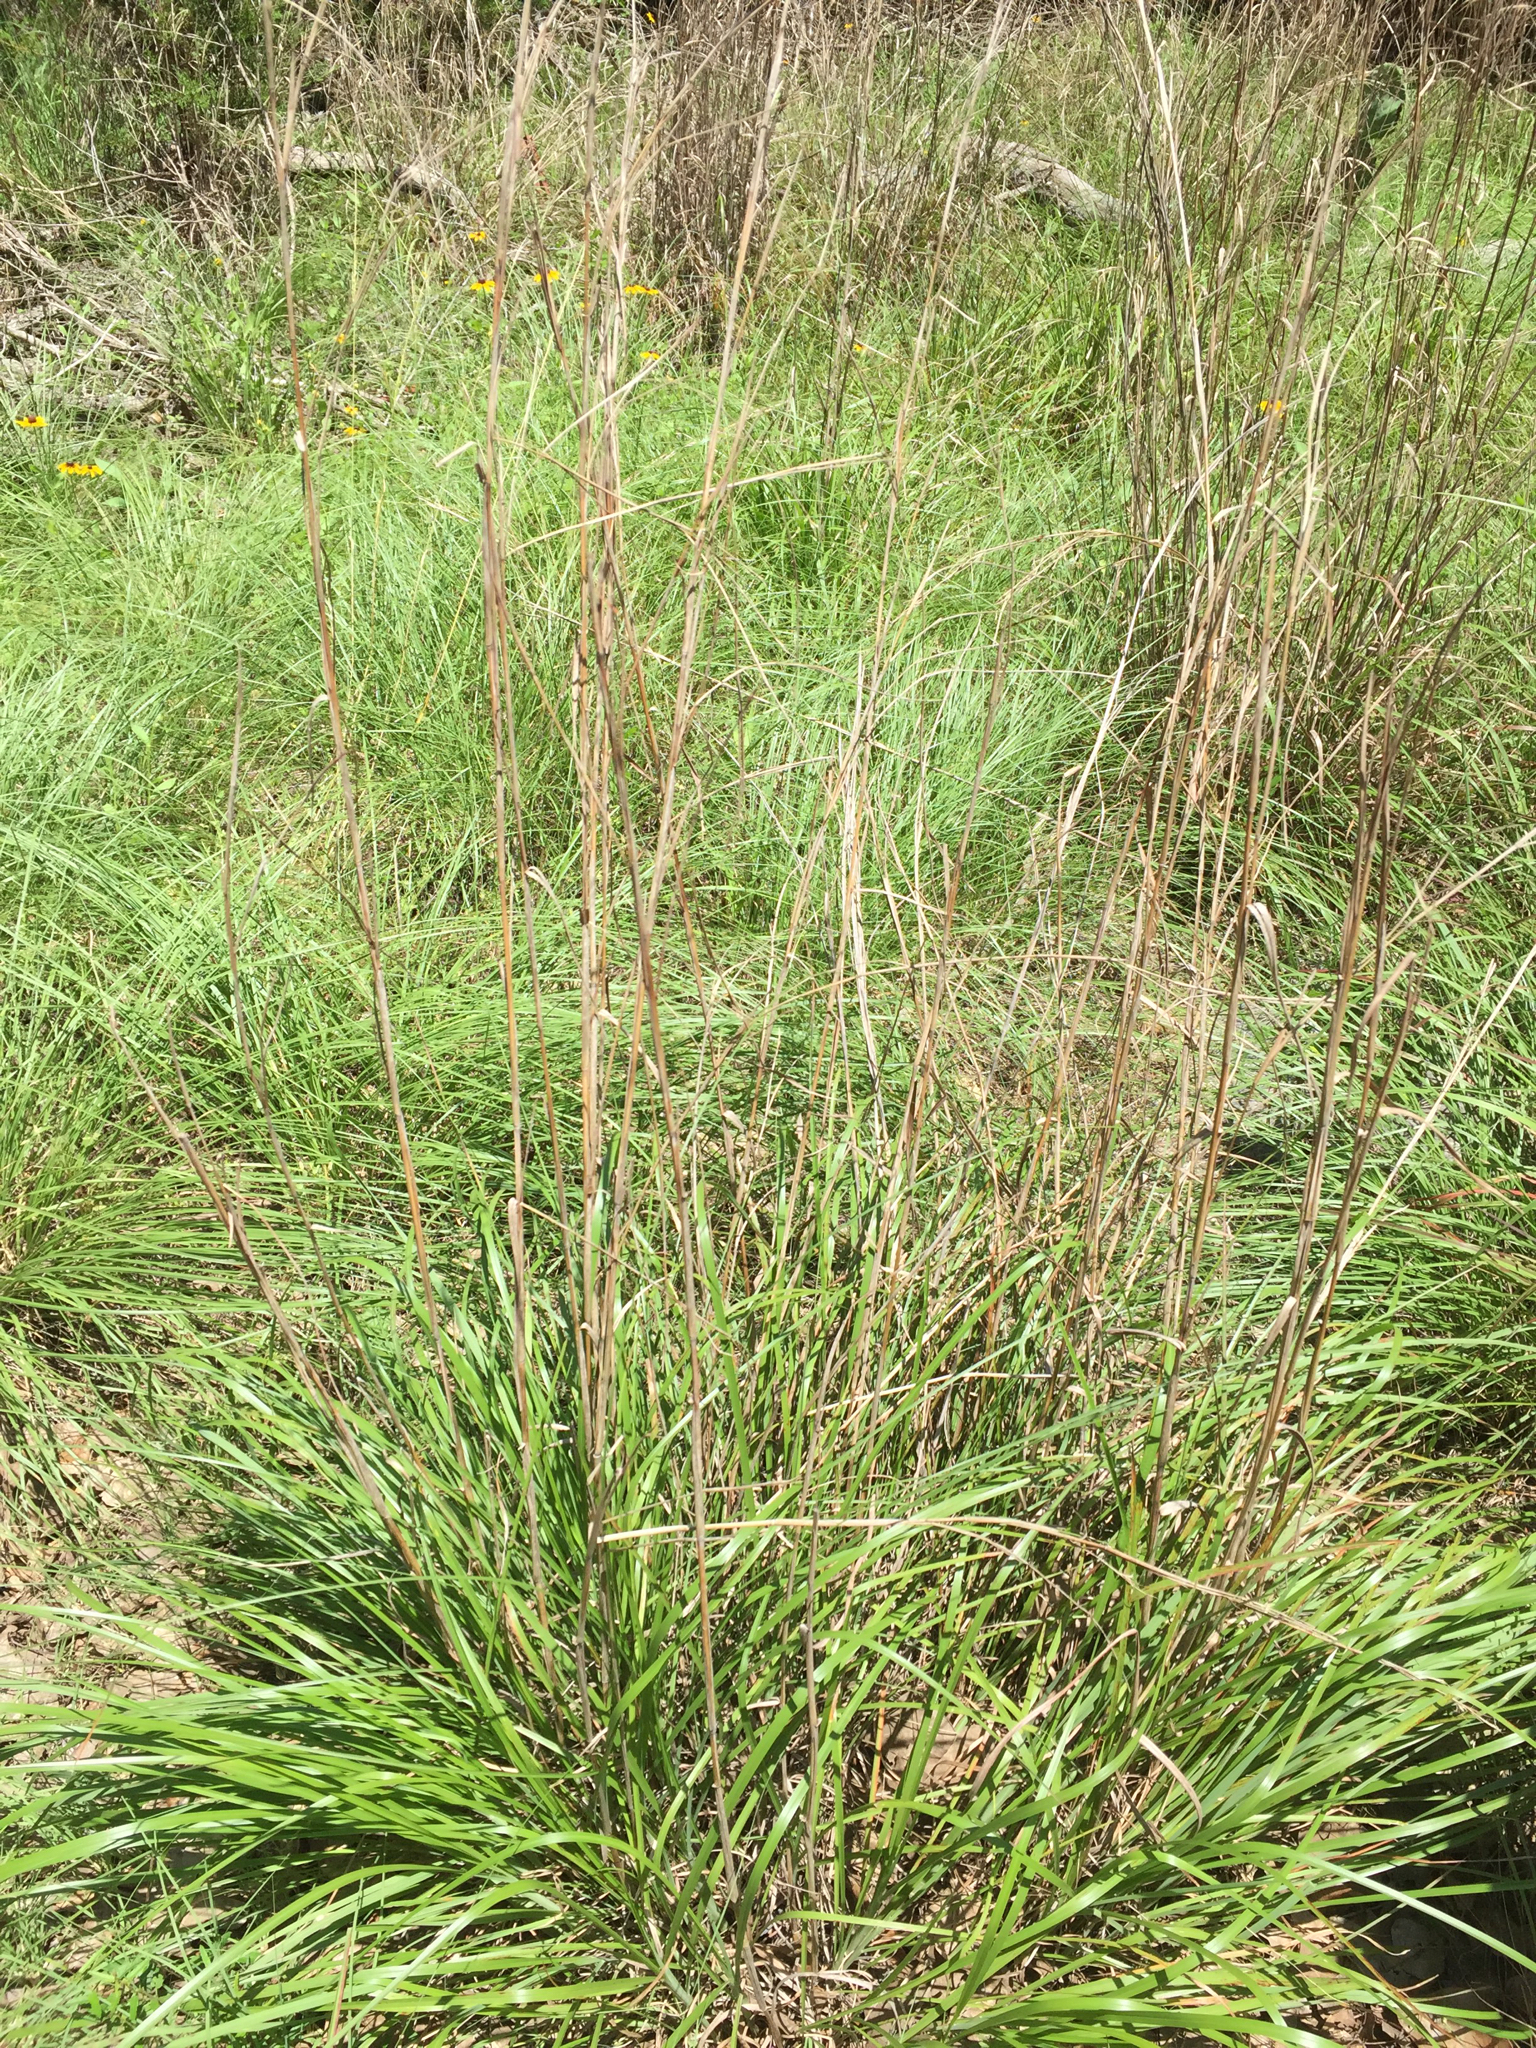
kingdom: Plantae
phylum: Tracheophyta
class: Liliopsida
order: Poales
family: Poaceae
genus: Schizachyrium
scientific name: Schizachyrium scoparium
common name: Little bluestem
